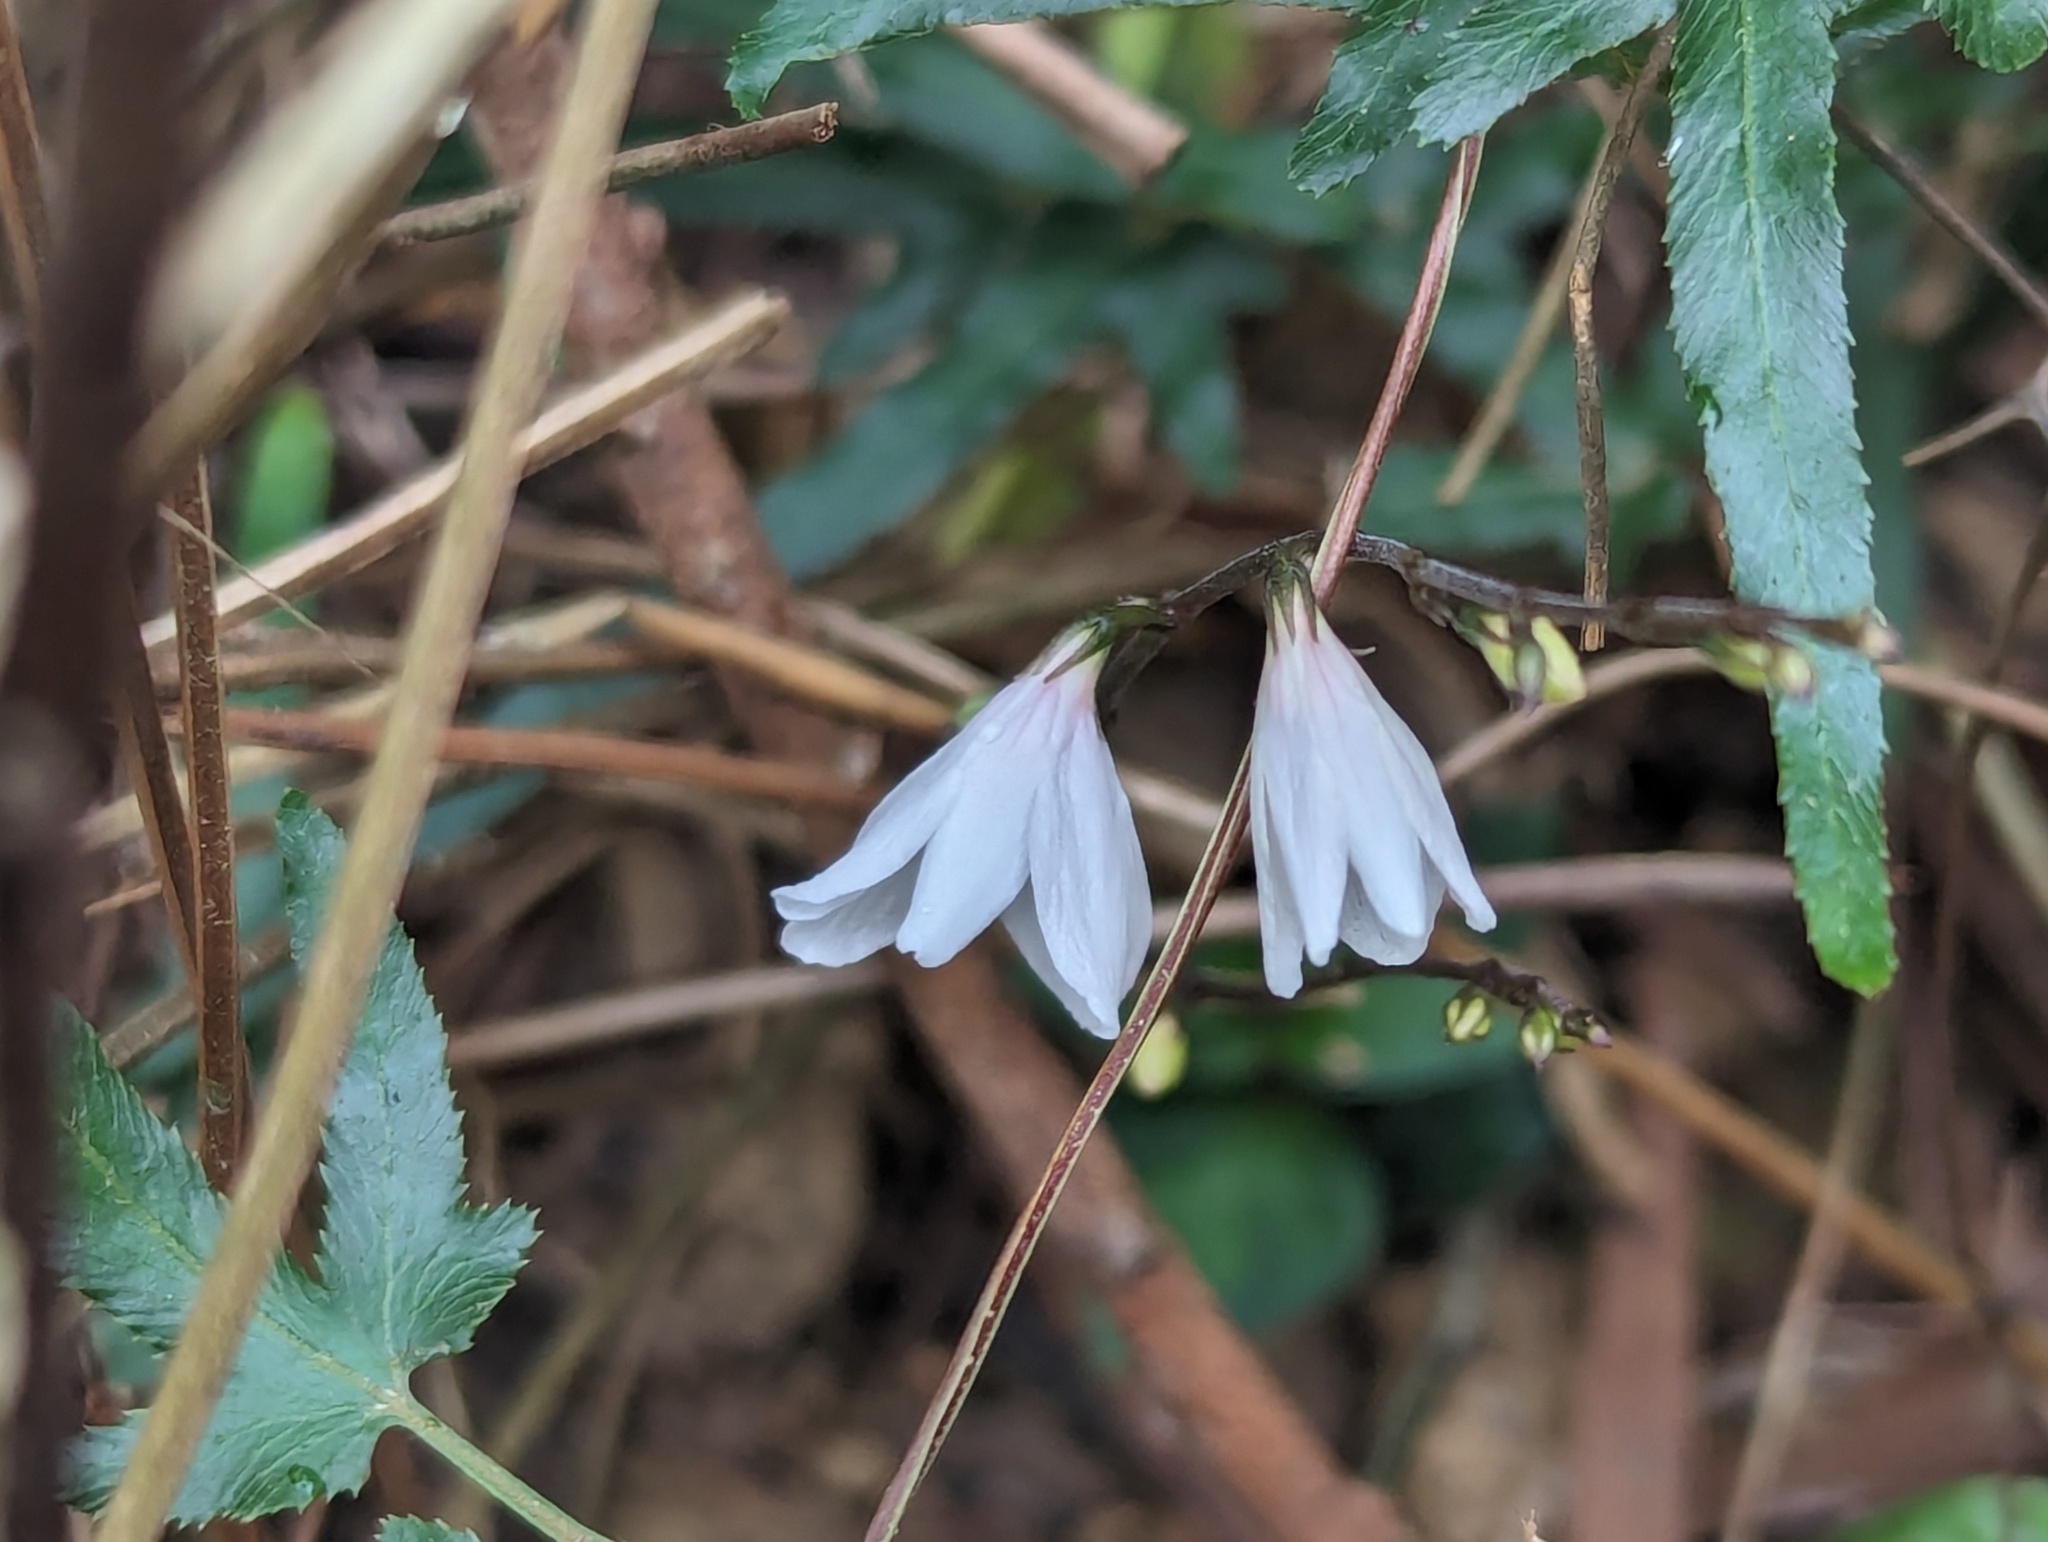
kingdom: Plantae
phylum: Tracheophyta
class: Magnoliopsida
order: Lamiales
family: Acanthaceae
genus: Codonacanthus
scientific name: Codonacanthus pauciflorus
